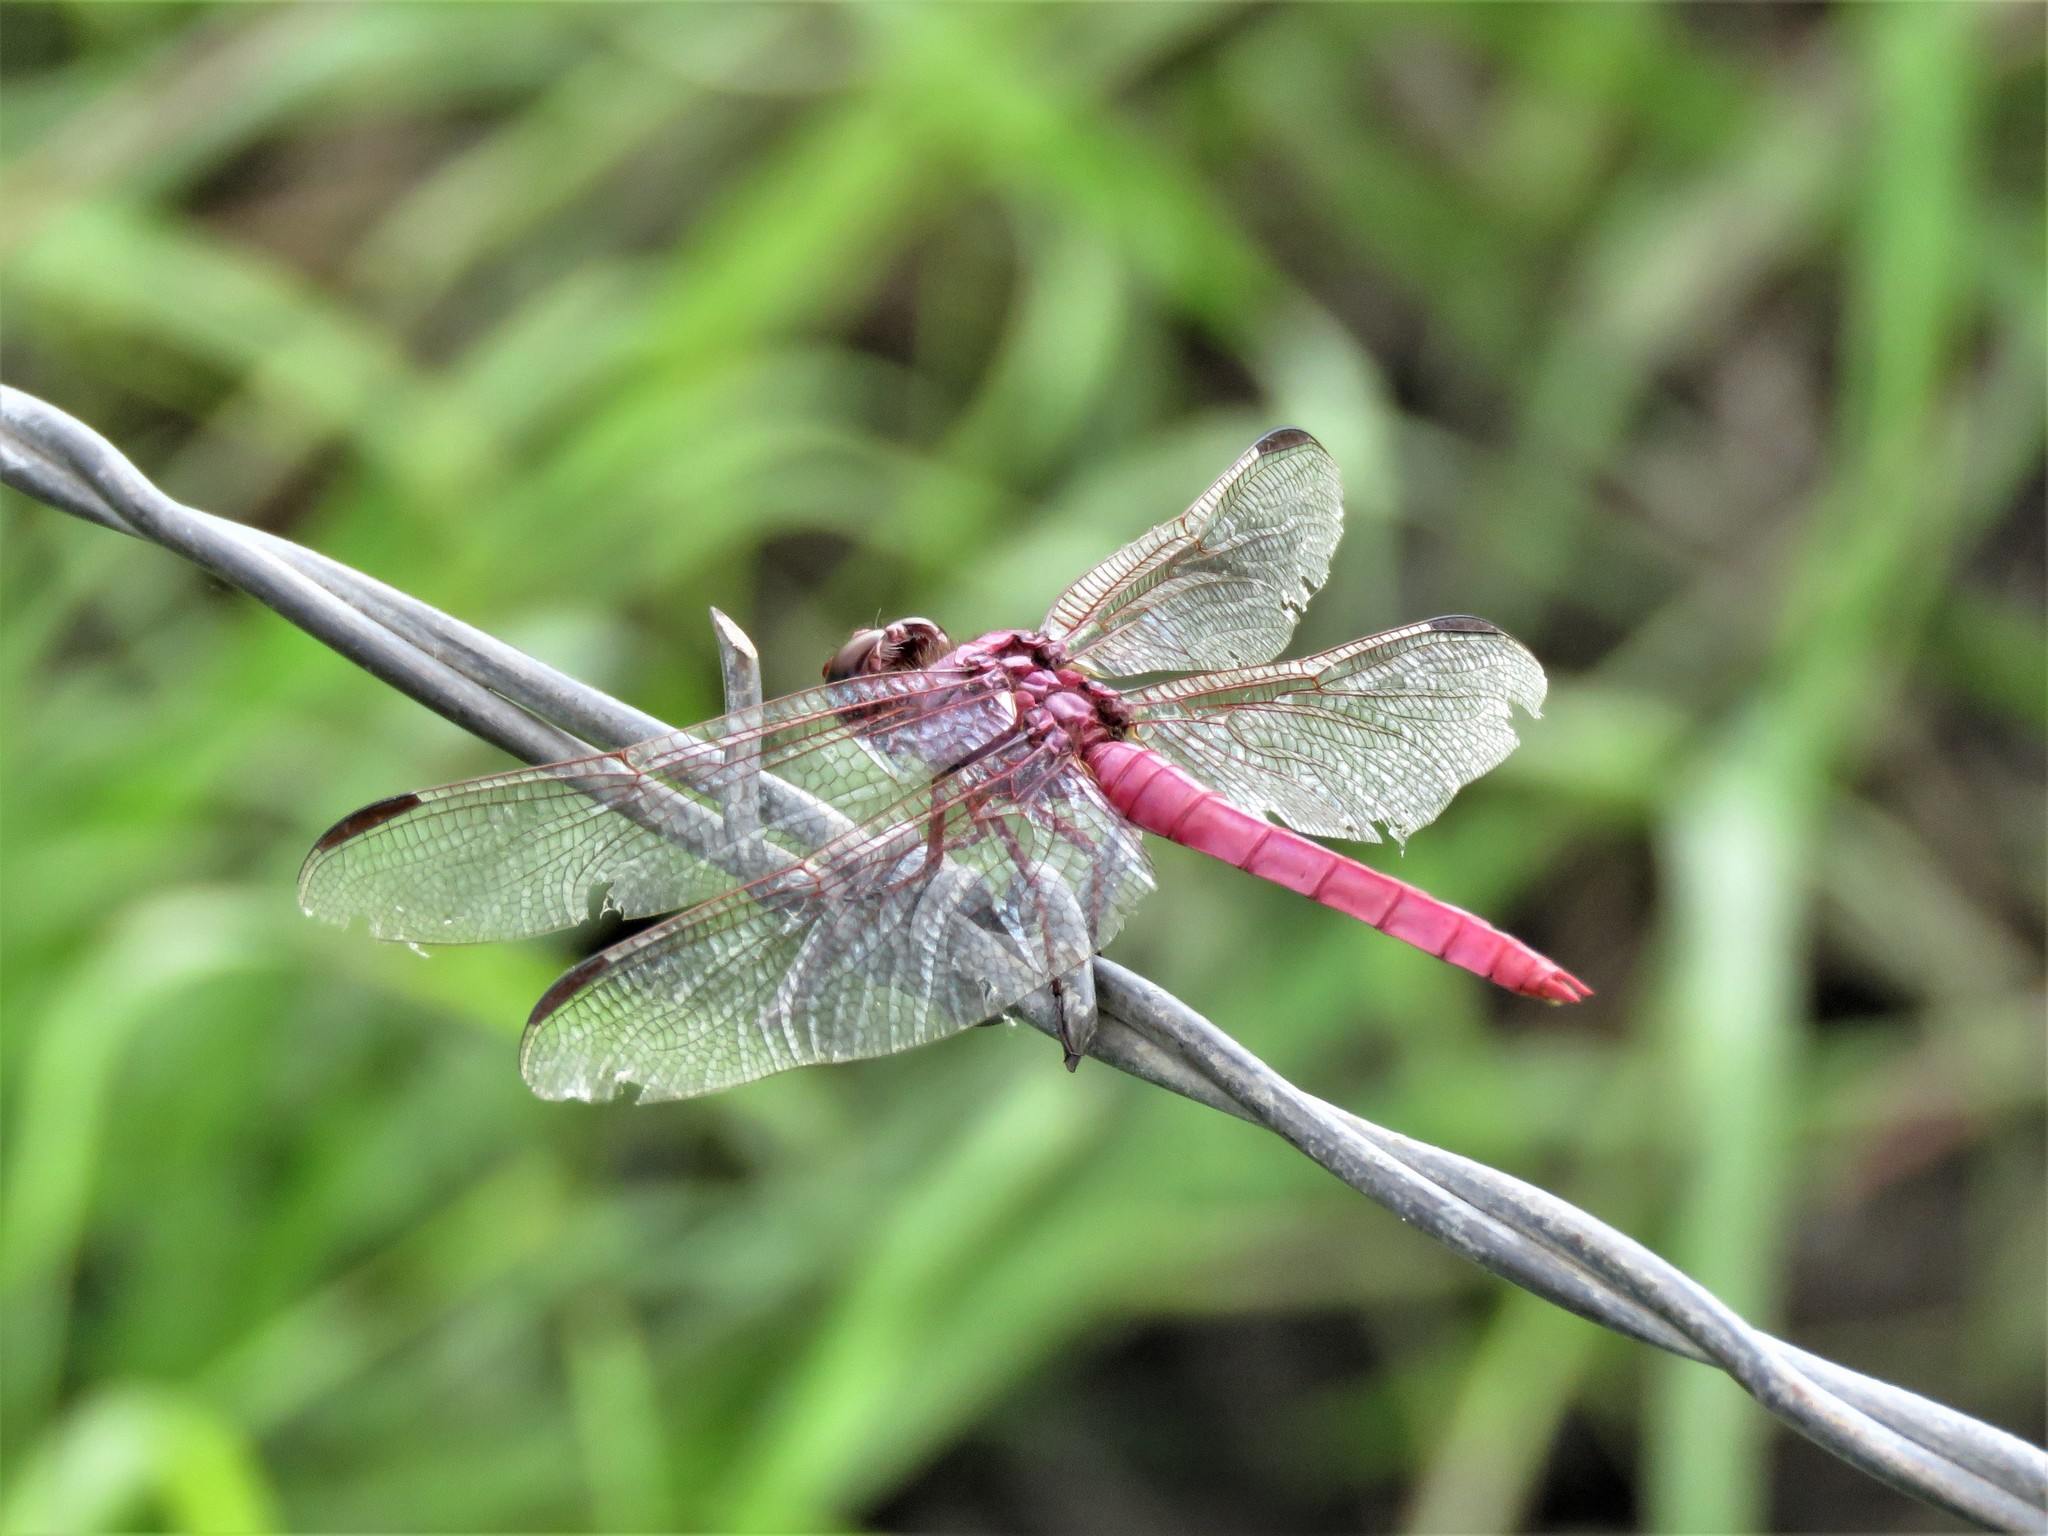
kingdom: Animalia
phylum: Arthropoda
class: Insecta
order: Odonata
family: Libellulidae
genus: Orthemis
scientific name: Orthemis ferruginea
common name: Roseate skimmer
